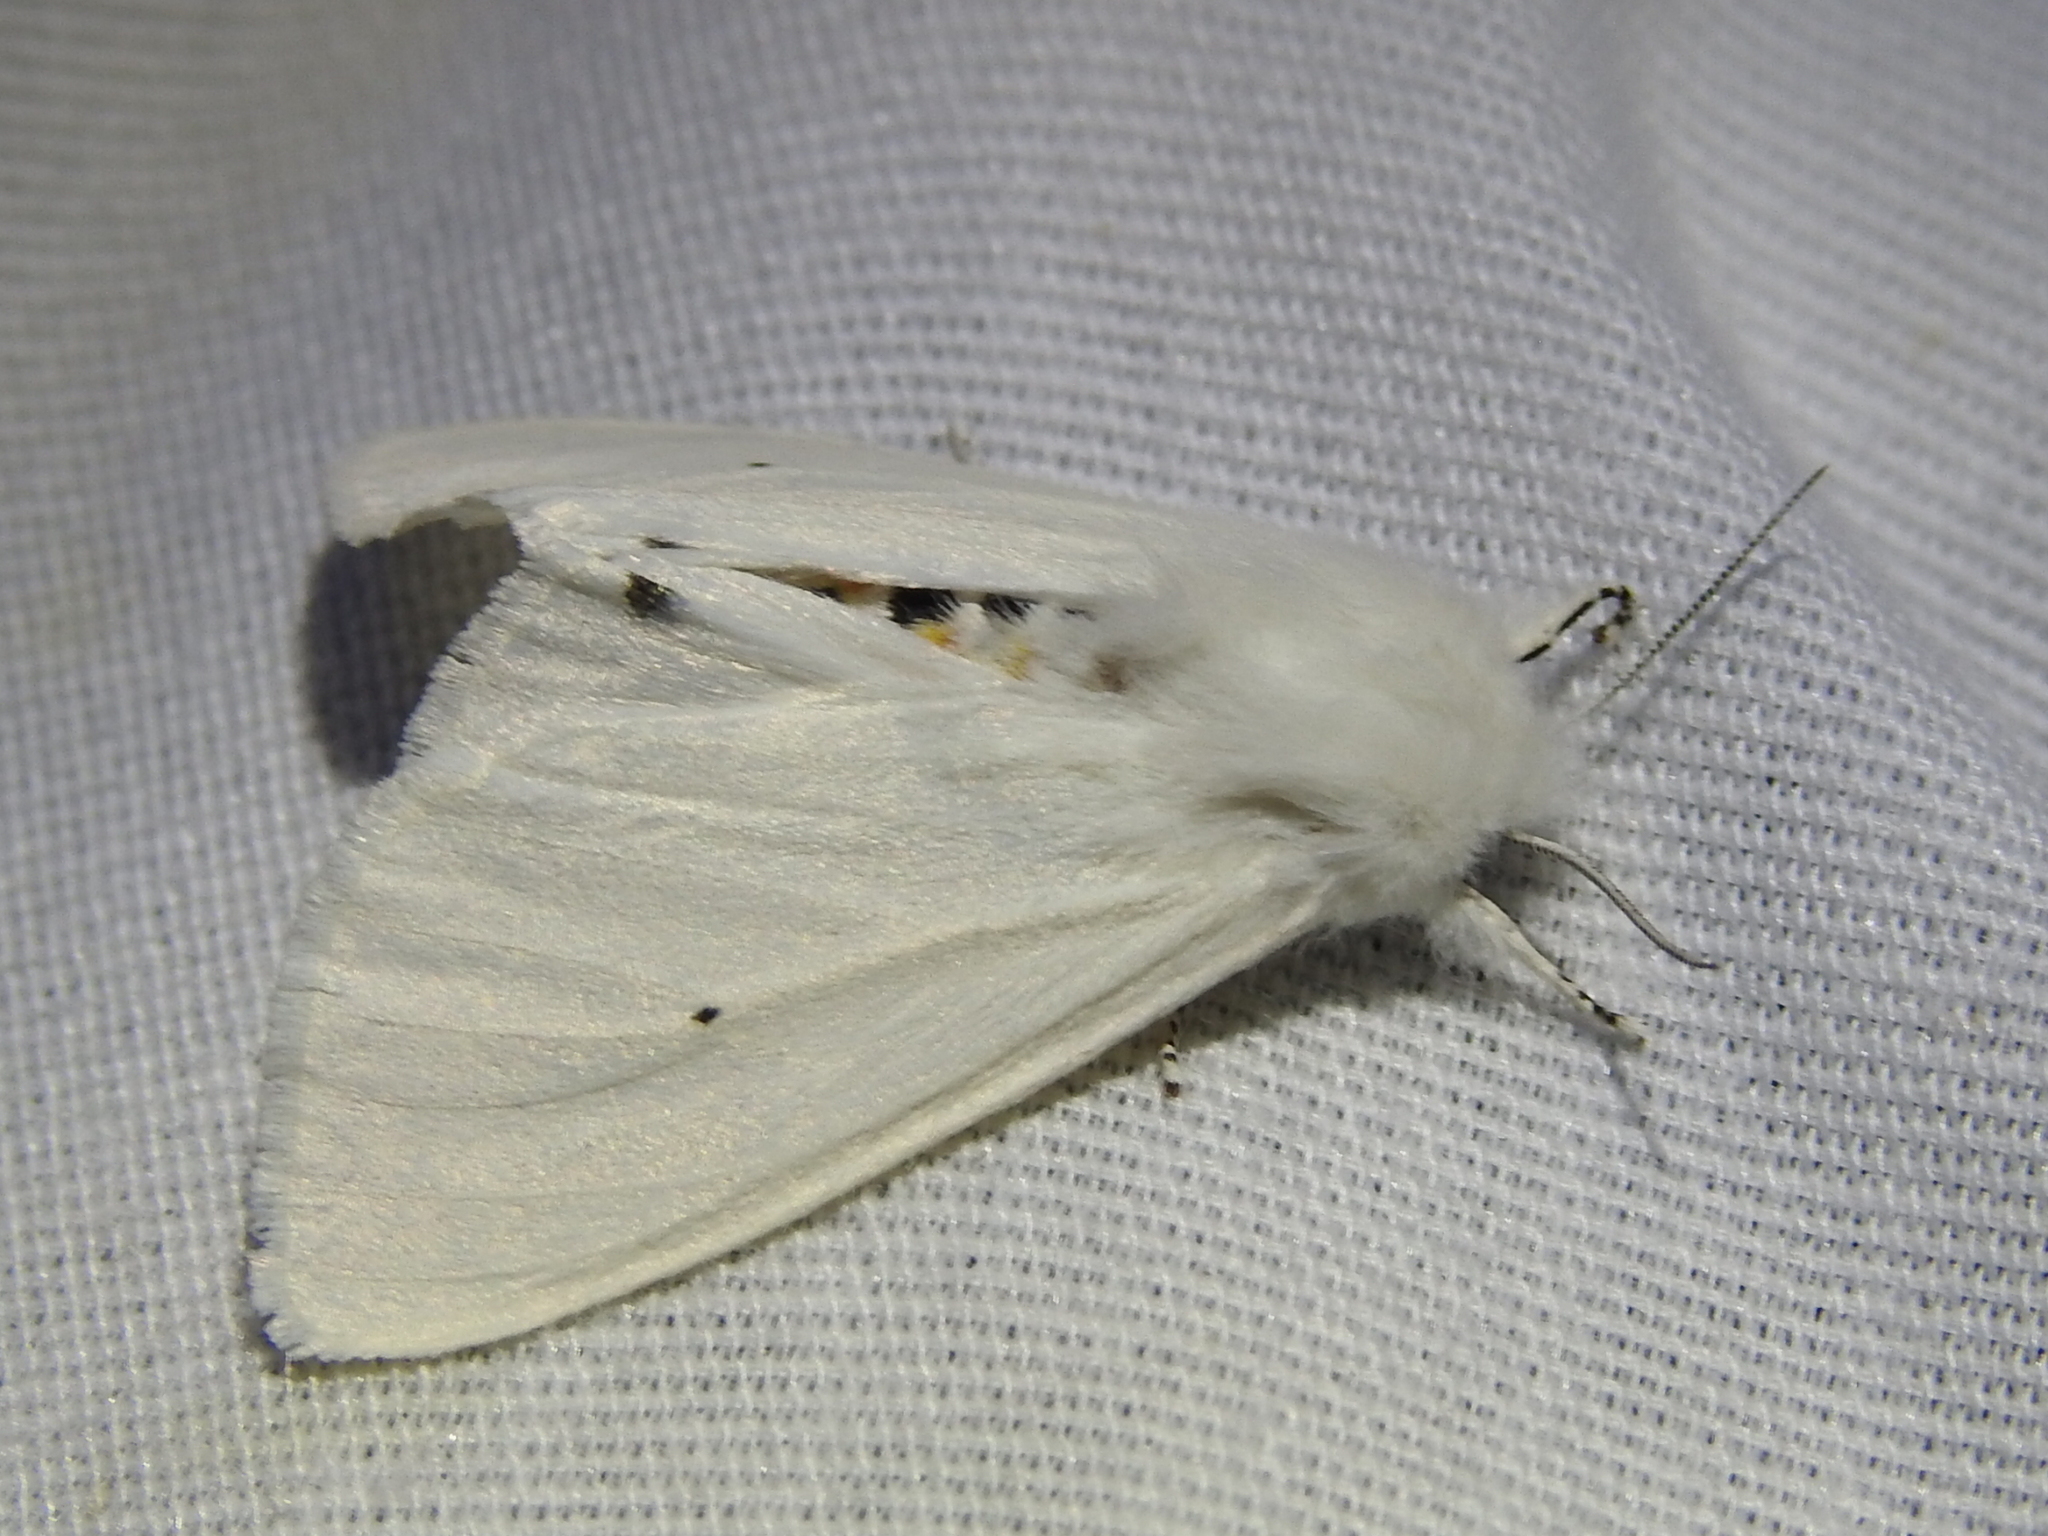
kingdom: Animalia
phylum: Arthropoda
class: Insecta
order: Lepidoptera
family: Erebidae
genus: Spilosoma
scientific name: Spilosoma virginica
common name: Virginia tiger moth
